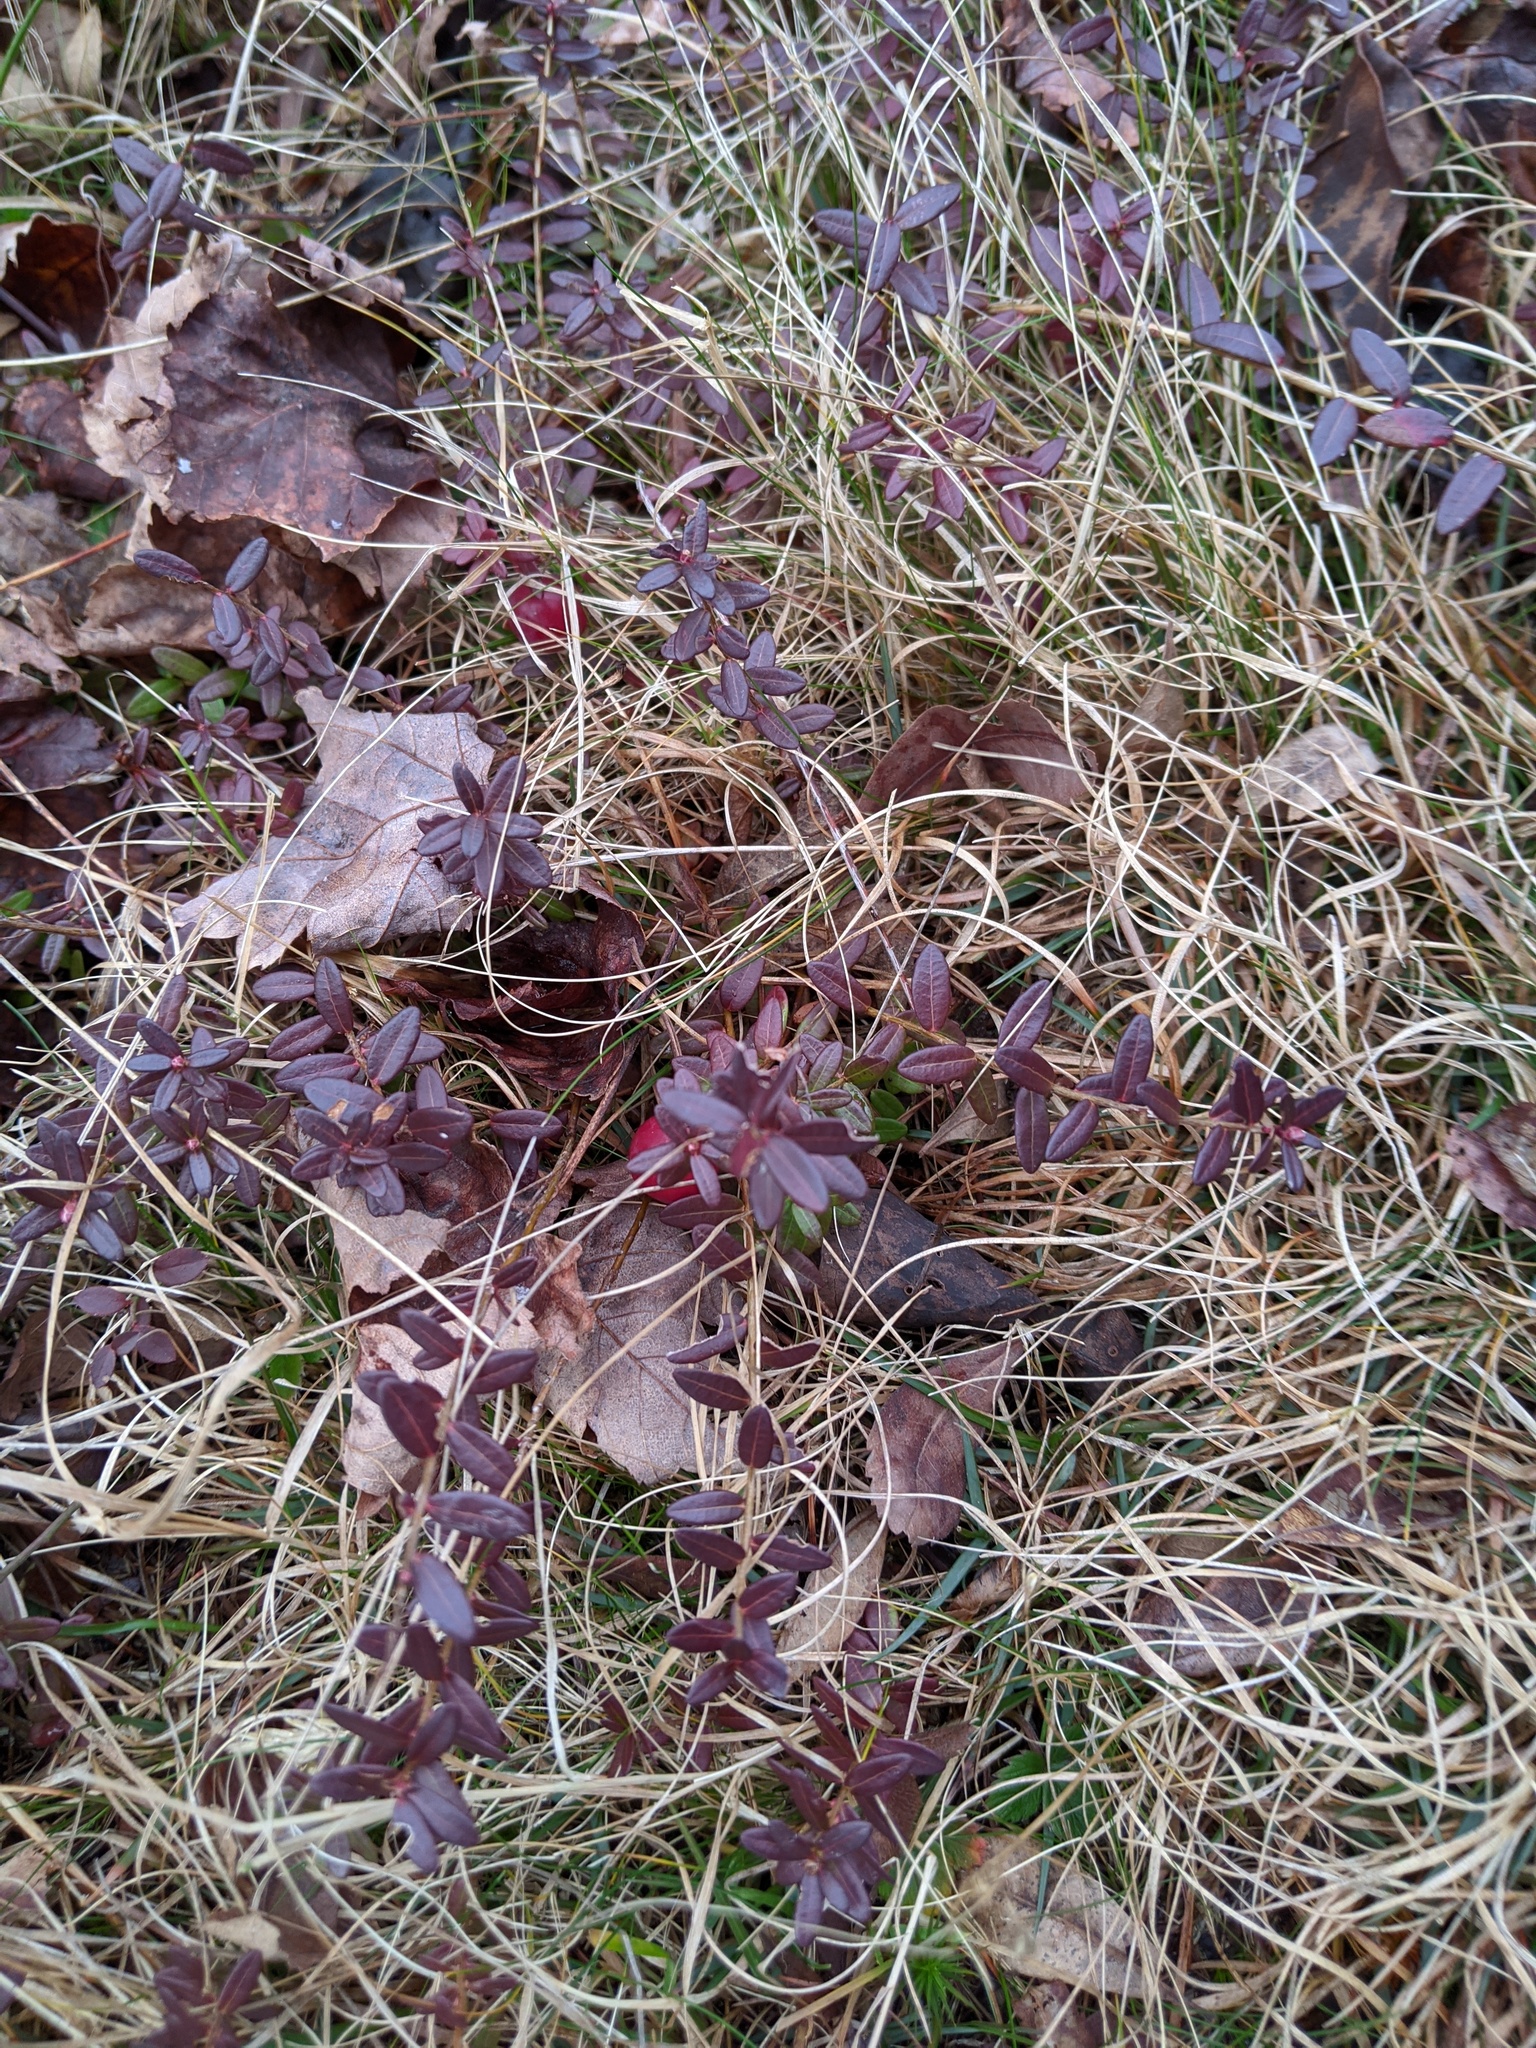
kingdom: Plantae
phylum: Tracheophyta
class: Magnoliopsida
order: Ericales
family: Ericaceae
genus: Vaccinium
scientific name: Vaccinium macrocarpon
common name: American cranberry
